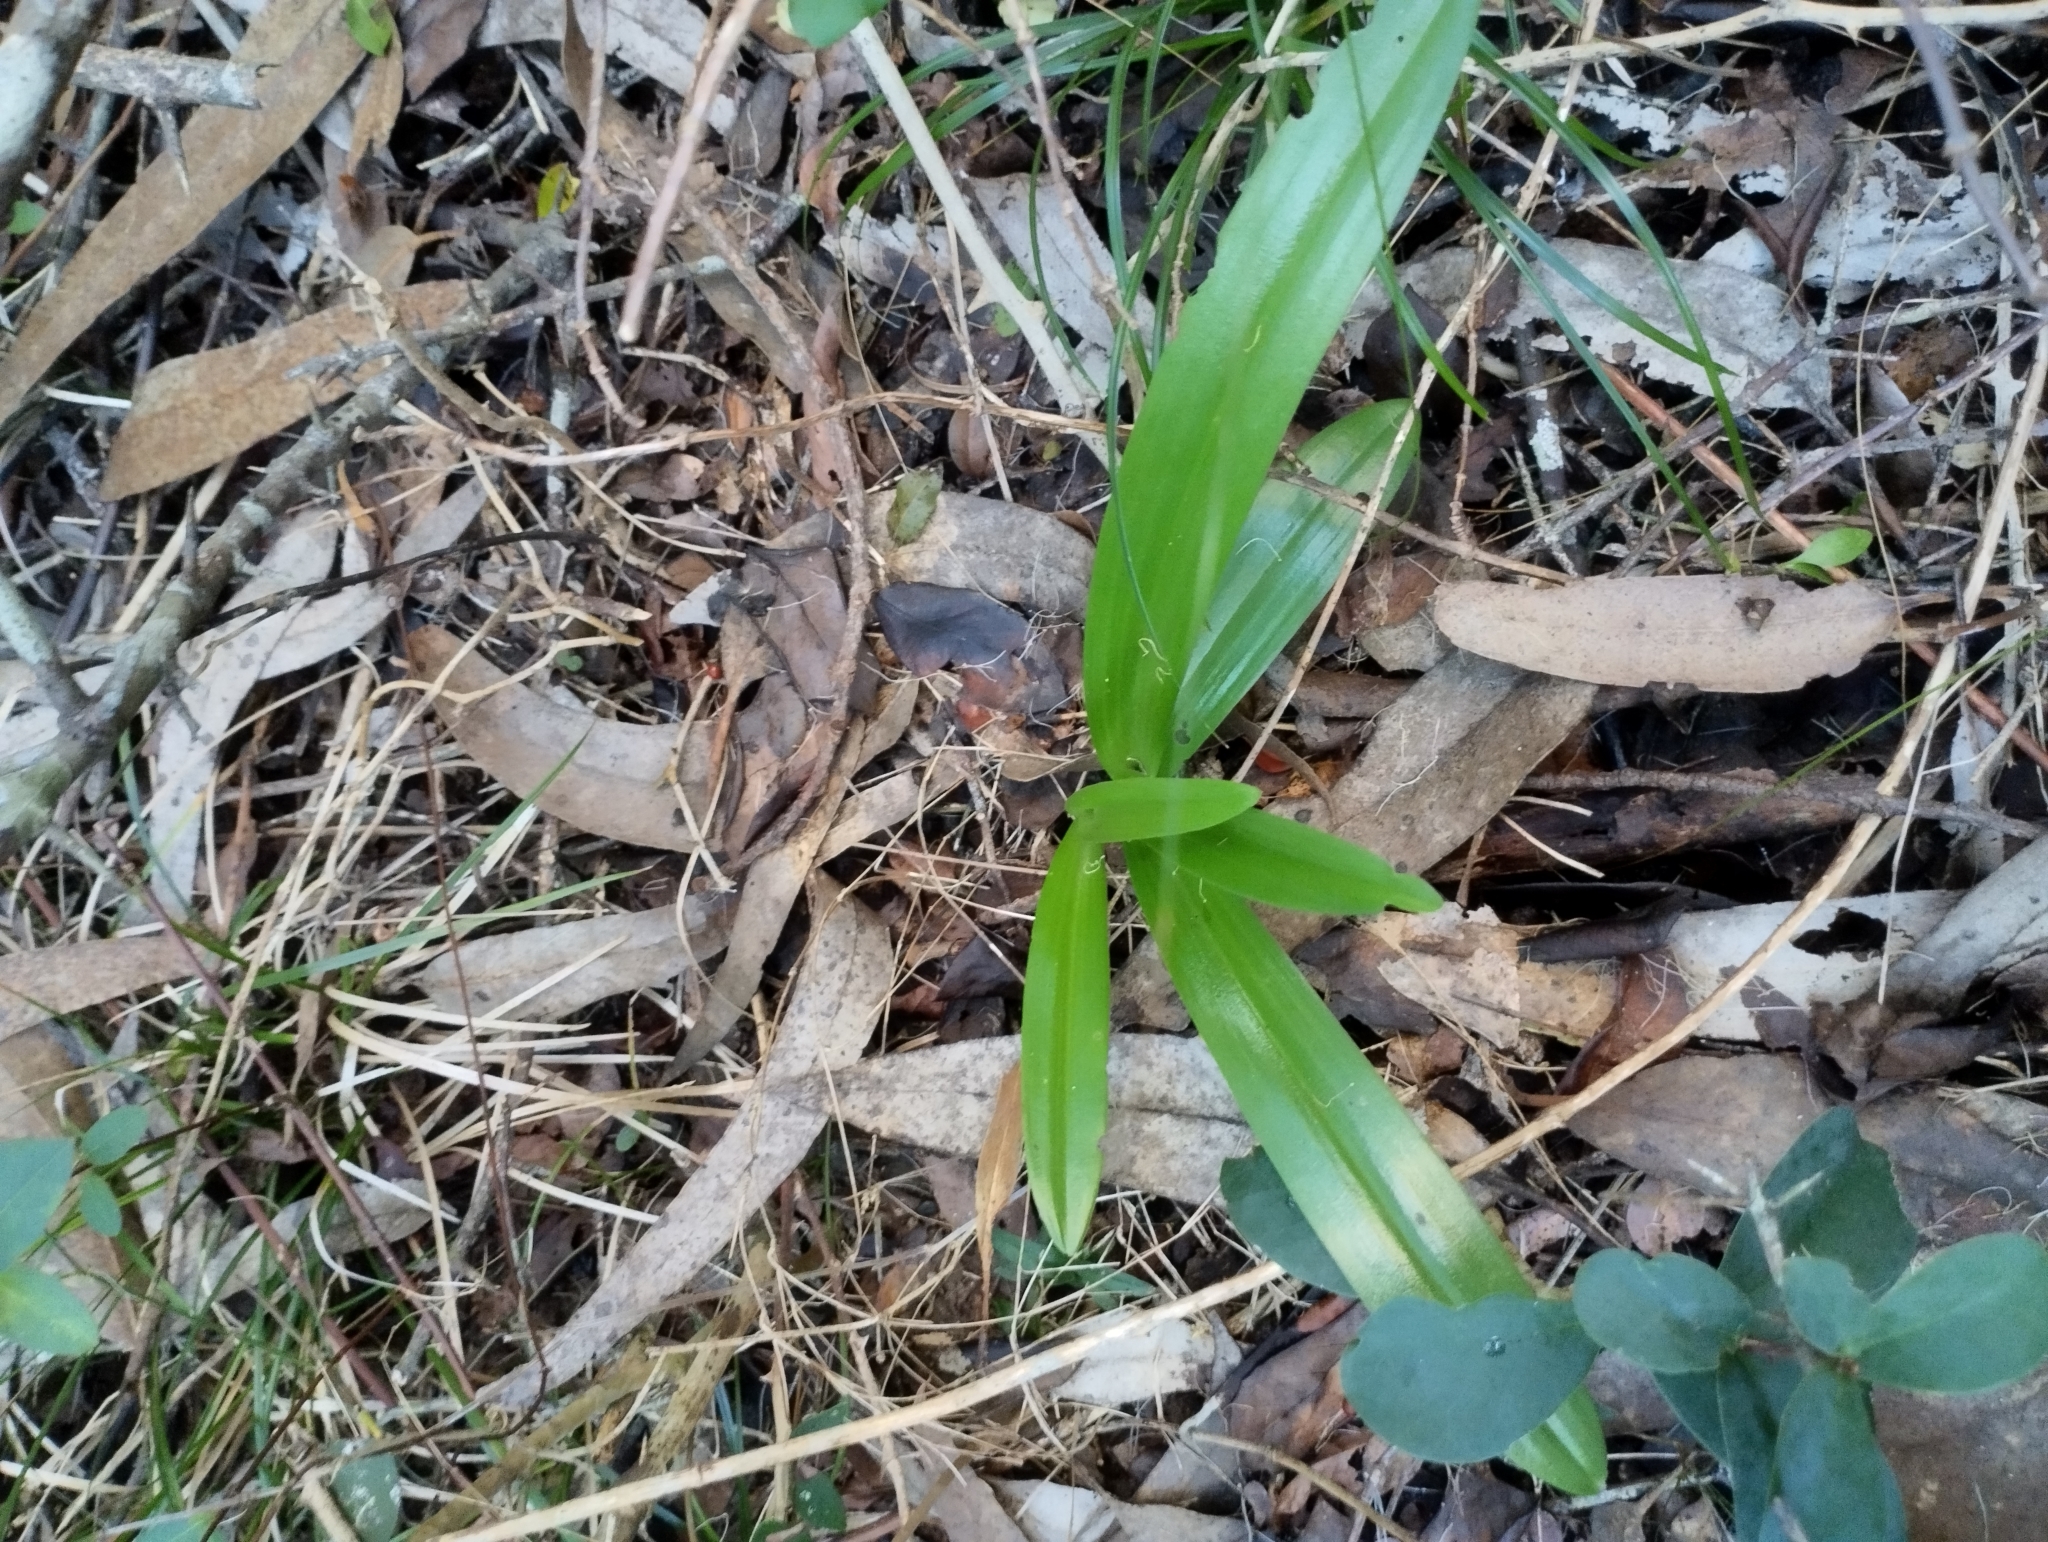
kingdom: Plantae
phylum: Tracheophyta
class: Liliopsida
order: Asparagales
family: Orchidaceae
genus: Chloraea
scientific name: Chloraea membranacea
